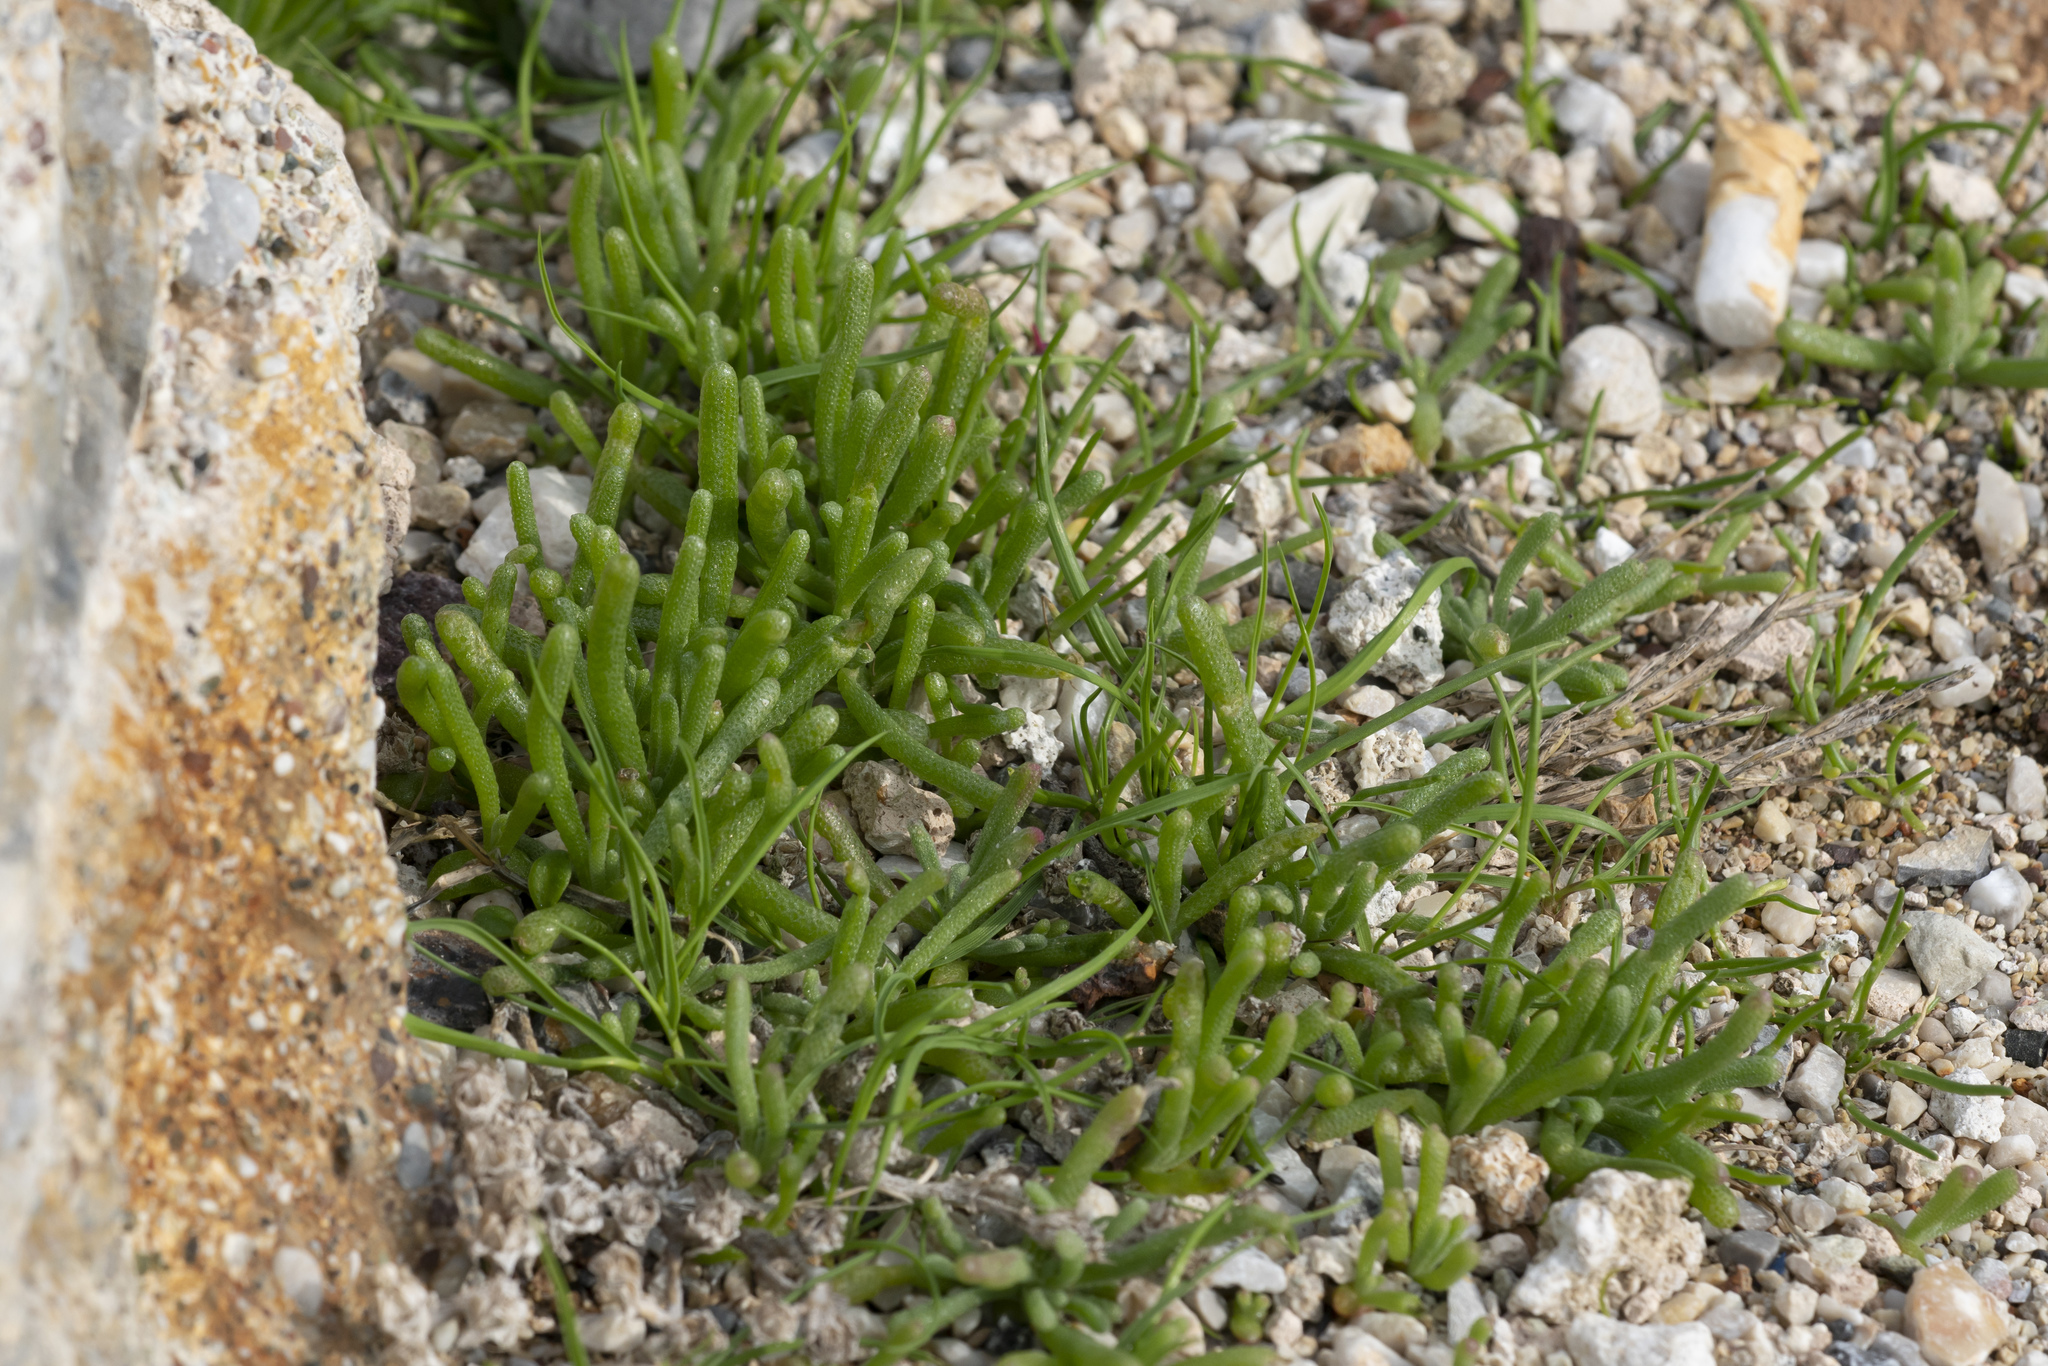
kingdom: Plantae
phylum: Tracheophyta
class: Magnoliopsida
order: Caryophyllales
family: Aizoaceae
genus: Mesembryanthemum
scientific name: Mesembryanthemum nodiflorum
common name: Slenderleaf iceplant
